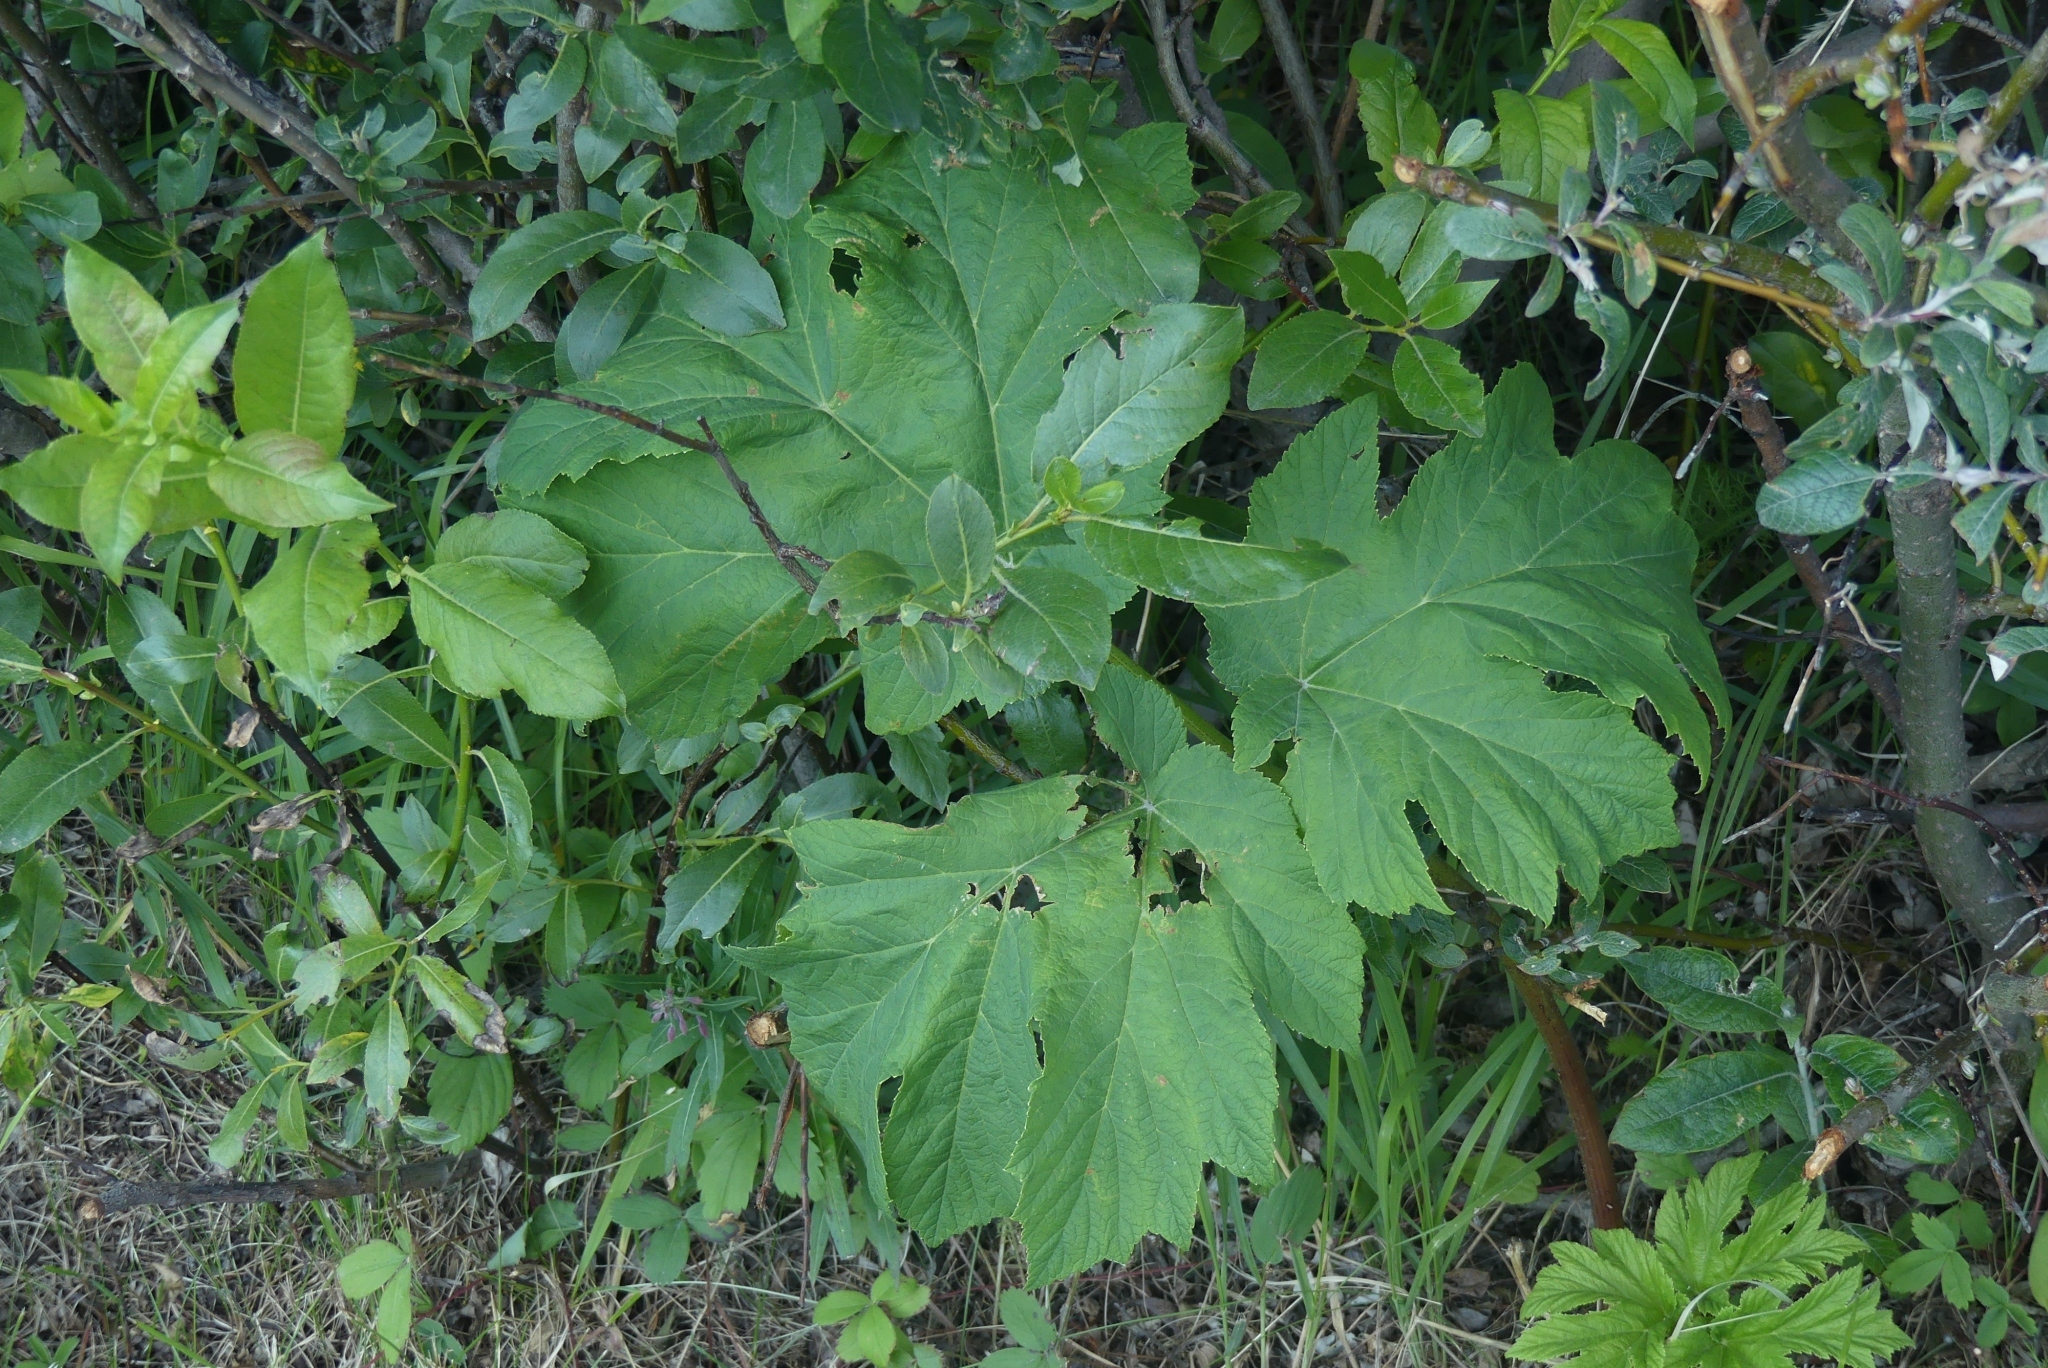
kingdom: Plantae
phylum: Tracheophyta
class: Magnoliopsida
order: Apiales
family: Apiaceae
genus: Heracleum
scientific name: Heracleum maximum
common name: American cow parsnip
